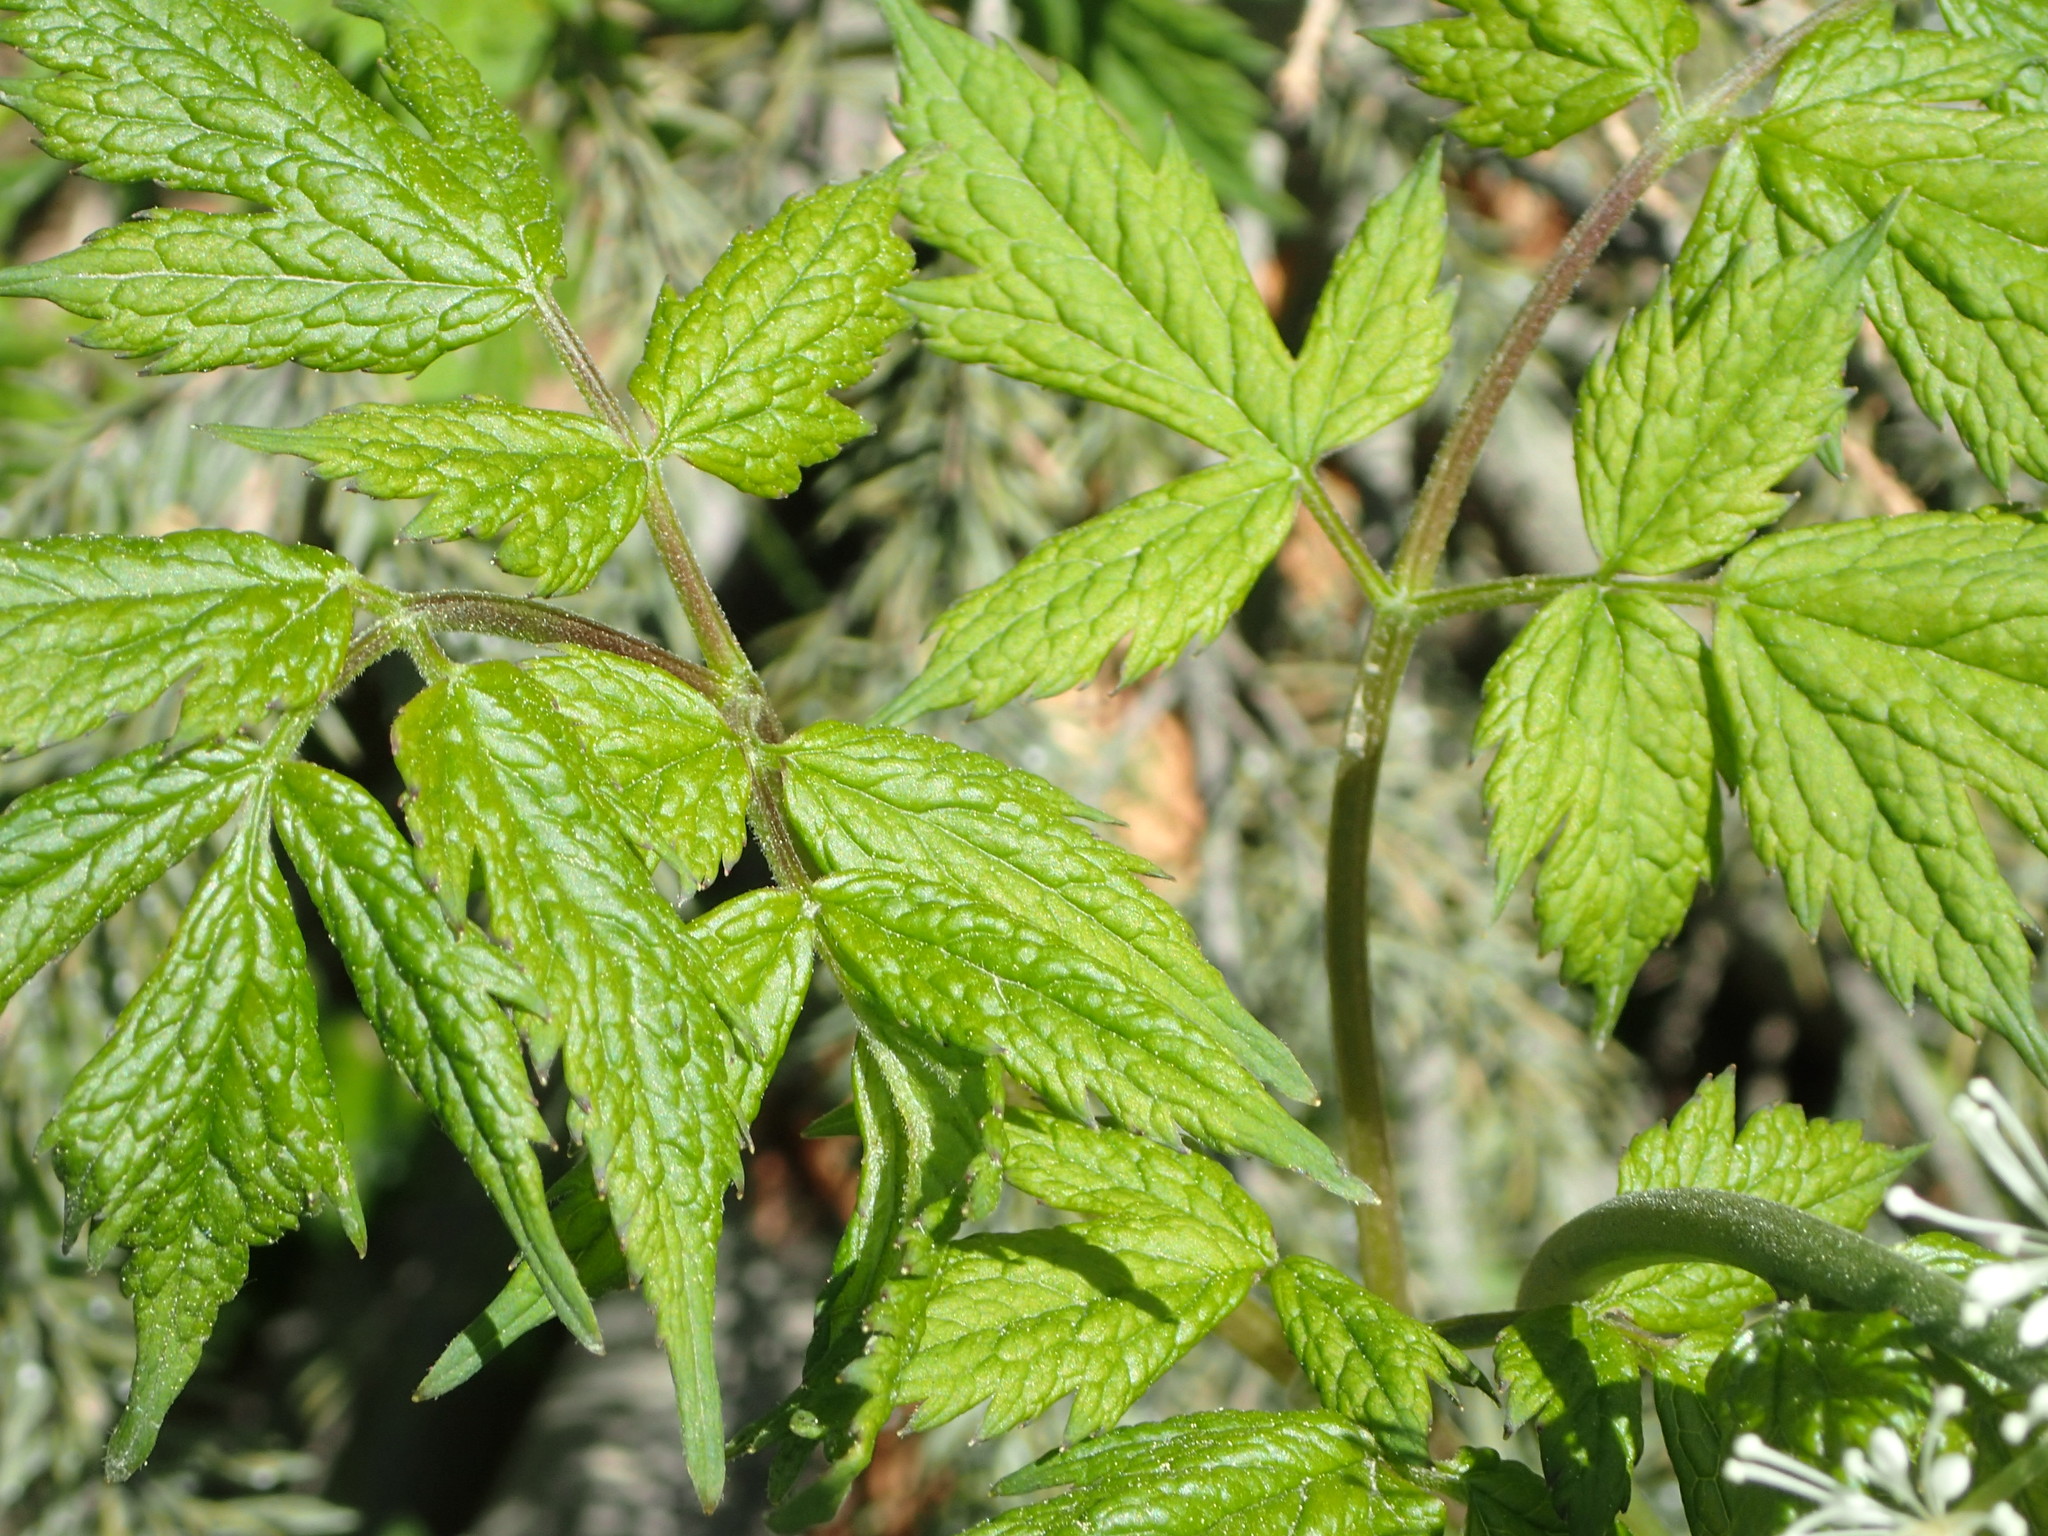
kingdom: Plantae
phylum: Tracheophyta
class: Magnoliopsida
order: Ranunculales
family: Ranunculaceae
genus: Actaea
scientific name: Actaea rubra
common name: Red baneberry
